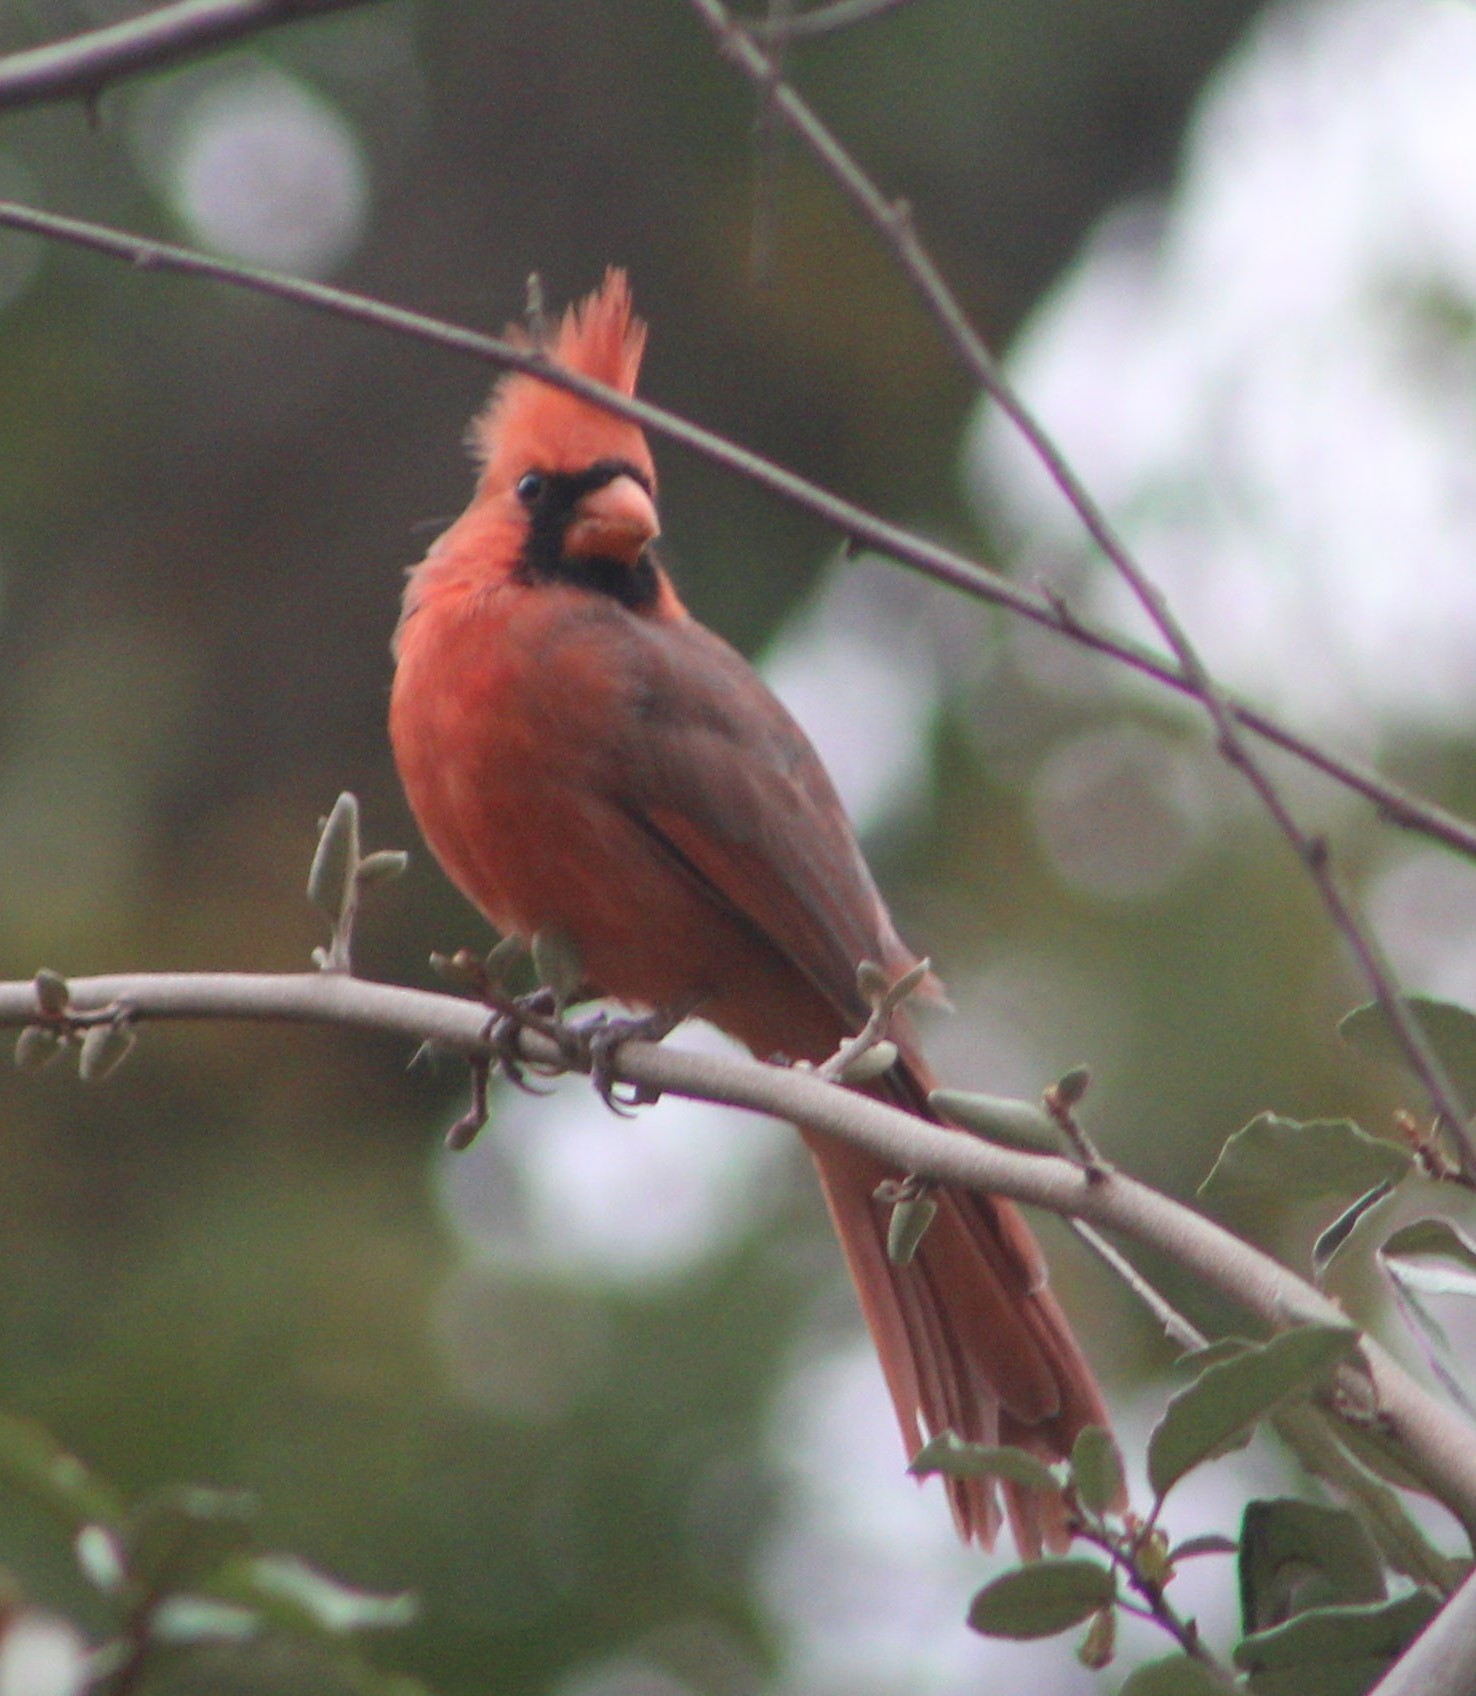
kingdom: Animalia
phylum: Chordata
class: Aves
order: Passeriformes
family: Cardinalidae
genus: Cardinalis
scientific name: Cardinalis cardinalis
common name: Northern cardinal
